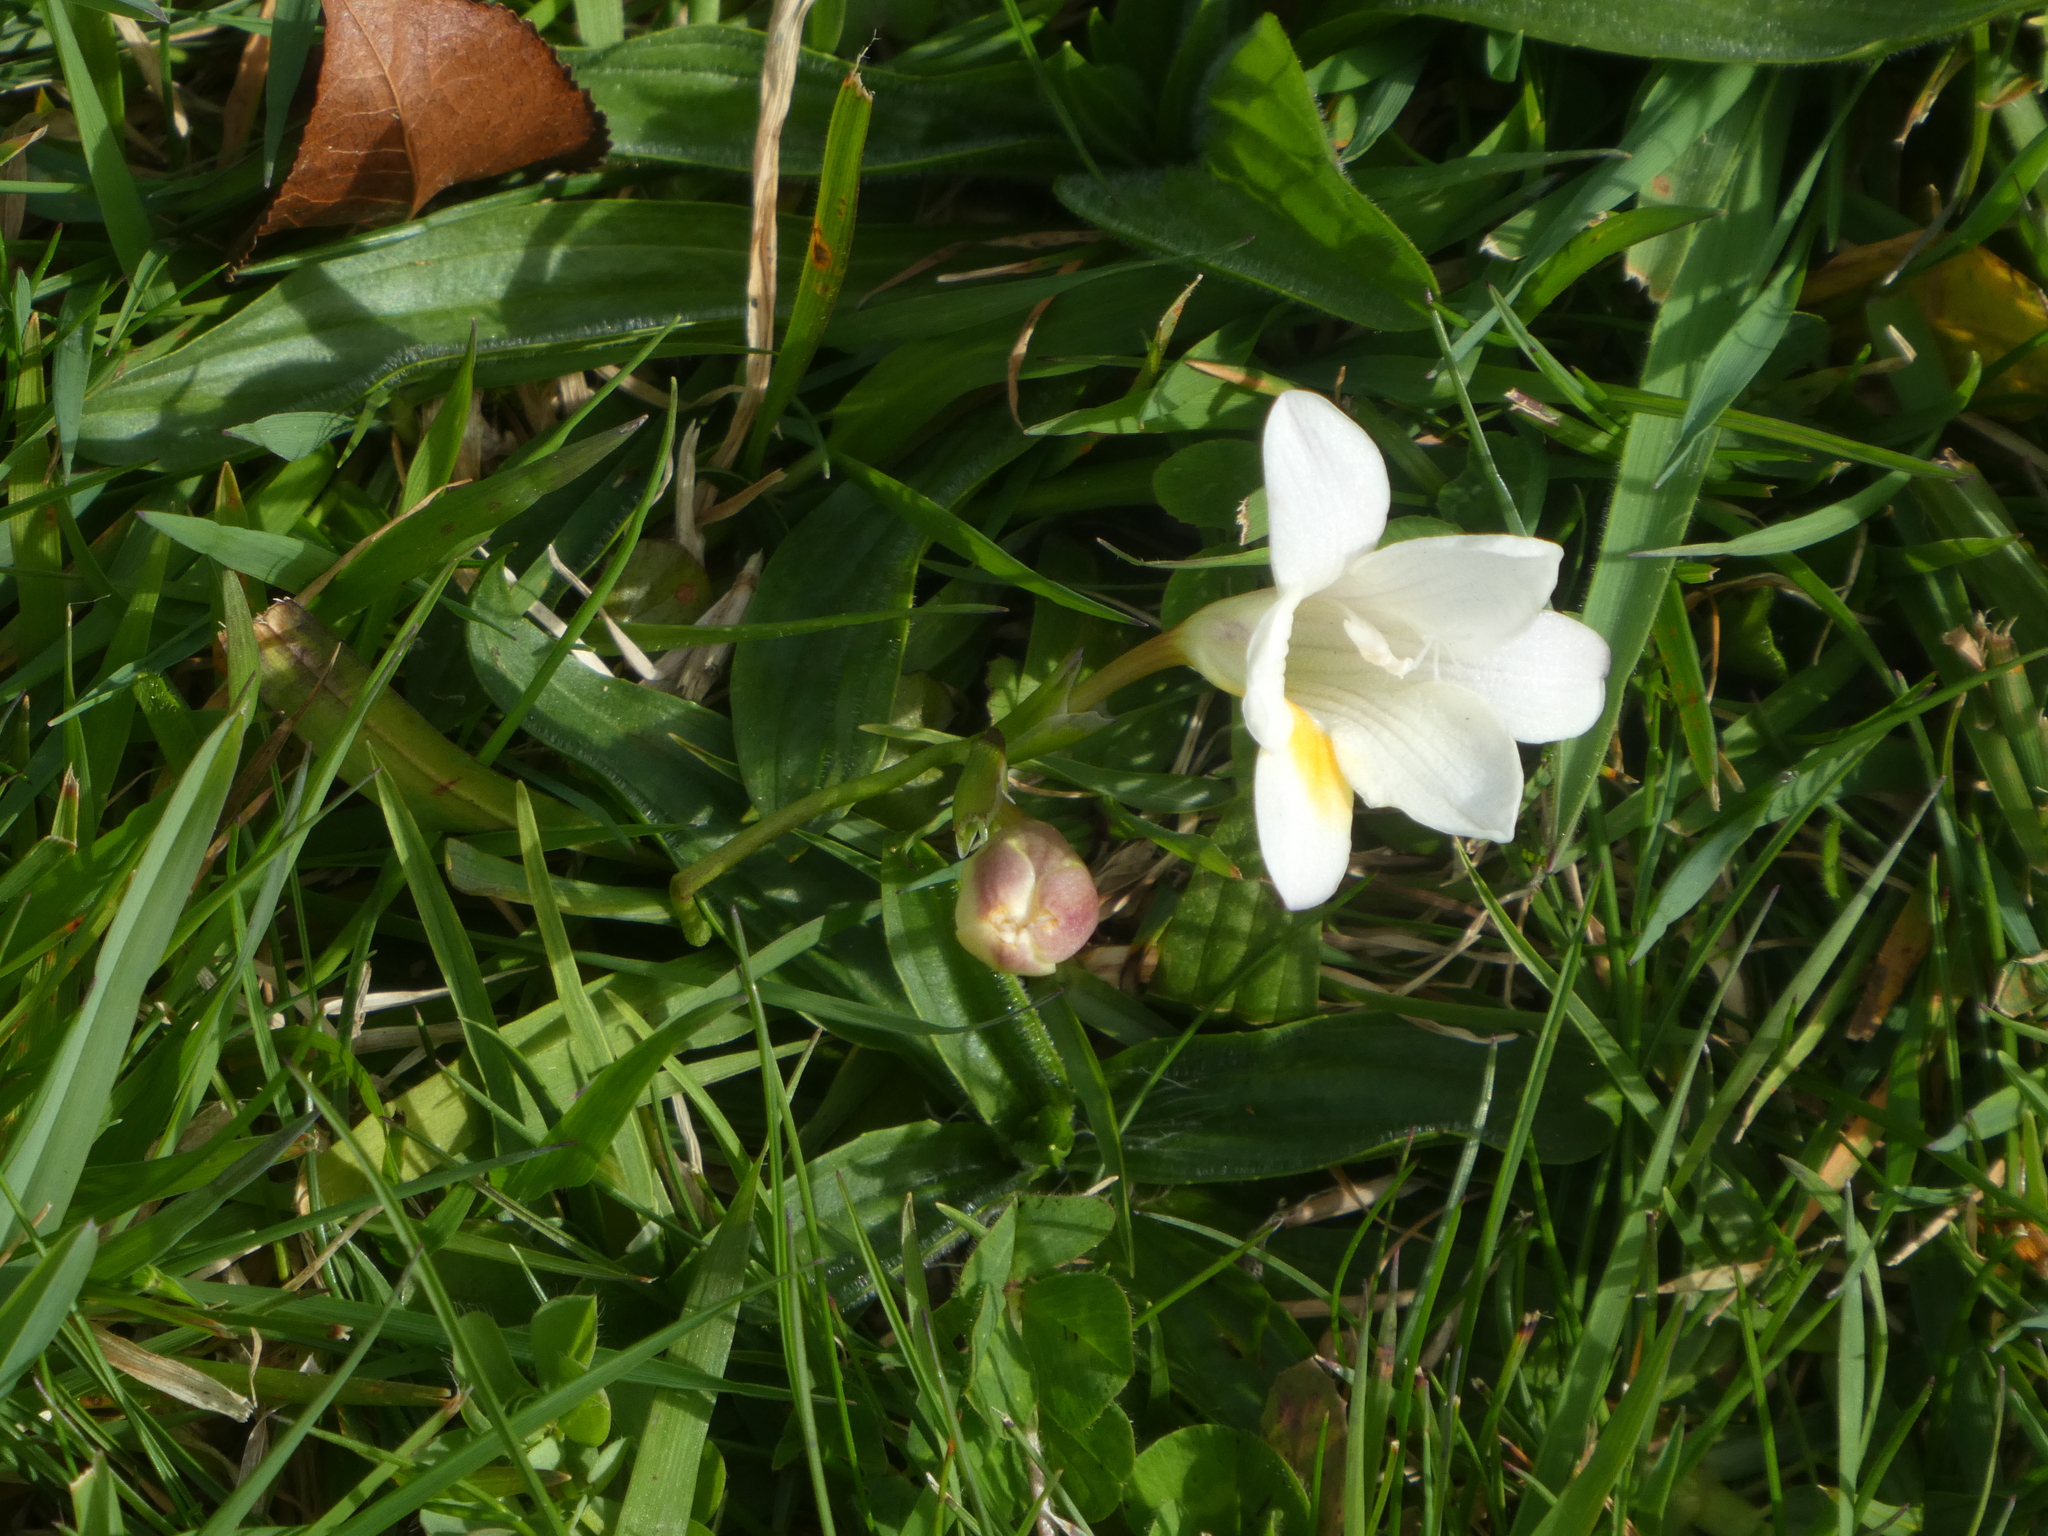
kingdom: Plantae
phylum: Tracheophyta
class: Liliopsida
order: Asparagales
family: Iridaceae
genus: Freesia
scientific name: Freesia leichtlinii
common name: Freesia
